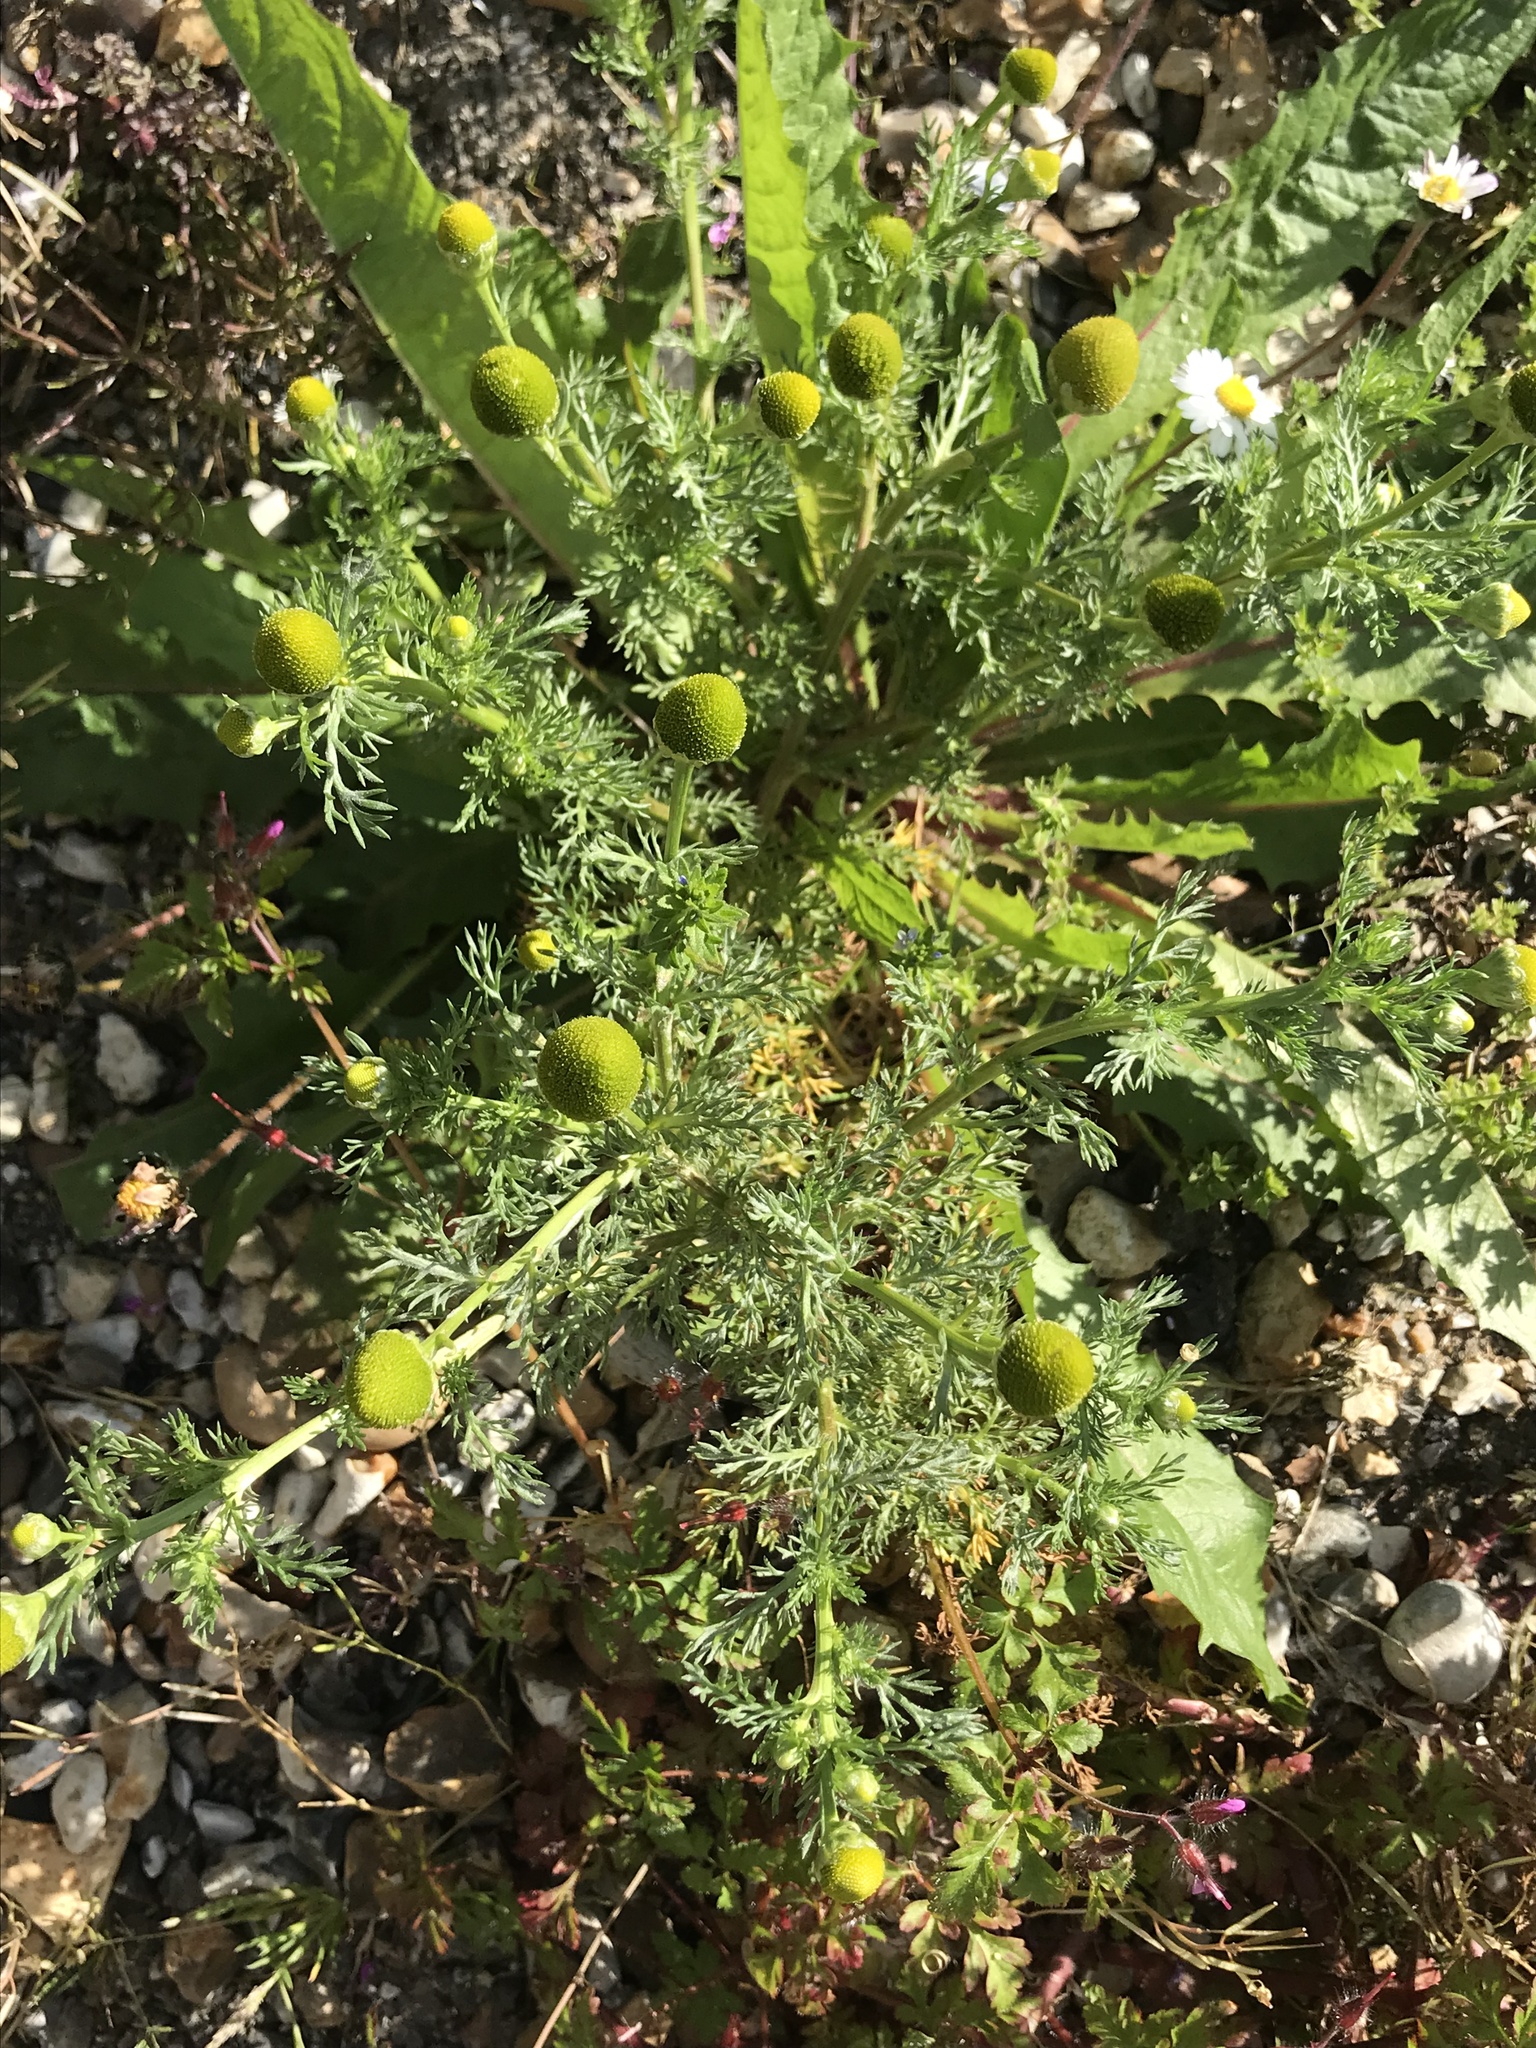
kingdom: Plantae
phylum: Tracheophyta
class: Magnoliopsida
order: Asterales
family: Asteraceae
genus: Matricaria
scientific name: Matricaria discoidea
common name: Disc mayweed
